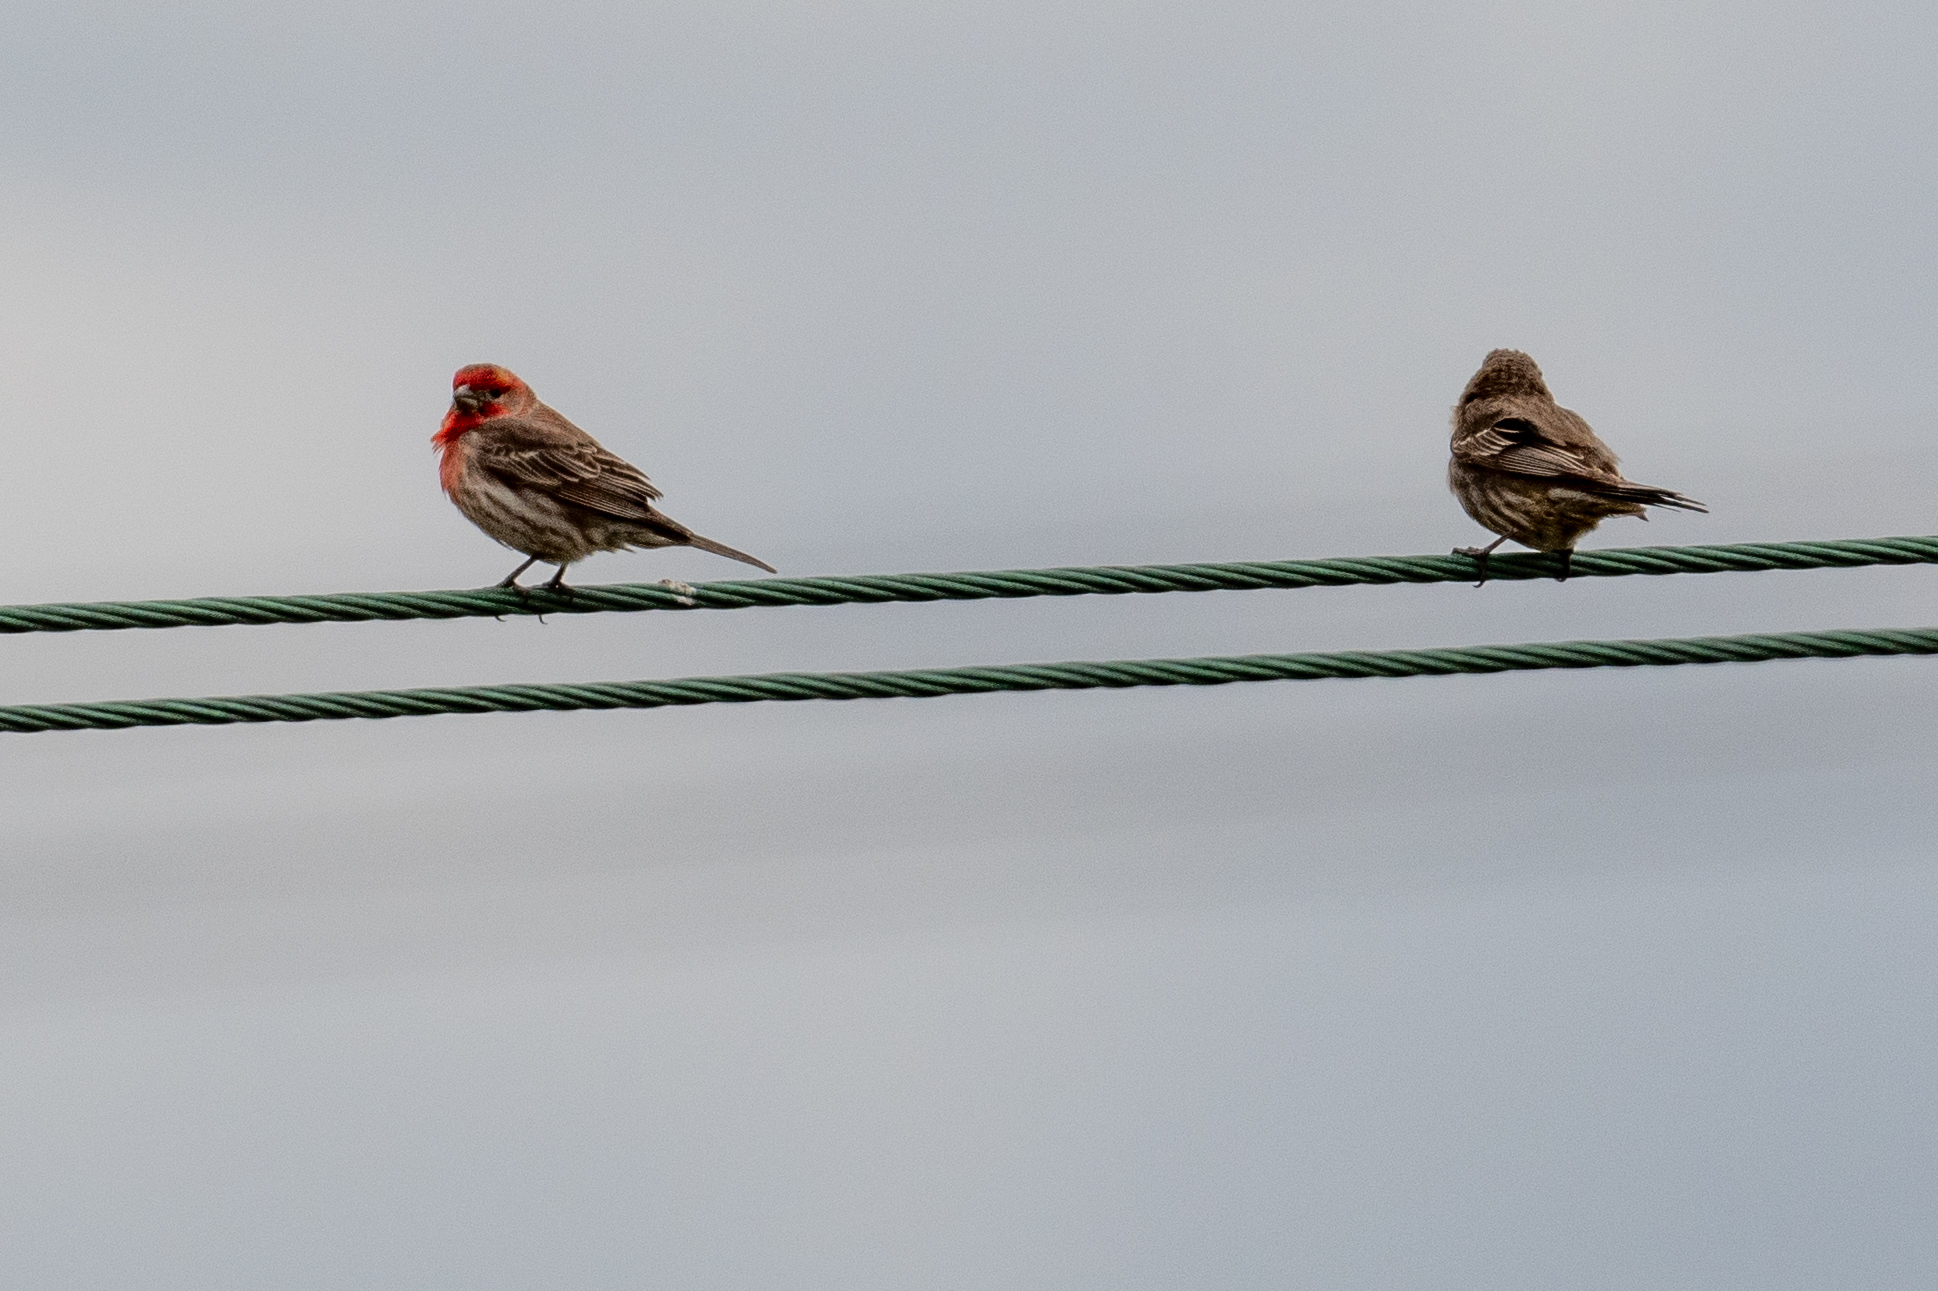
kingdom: Animalia
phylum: Chordata
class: Aves
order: Passeriformes
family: Fringillidae
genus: Haemorhous
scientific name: Haemorhous mexicanus
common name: House finch
